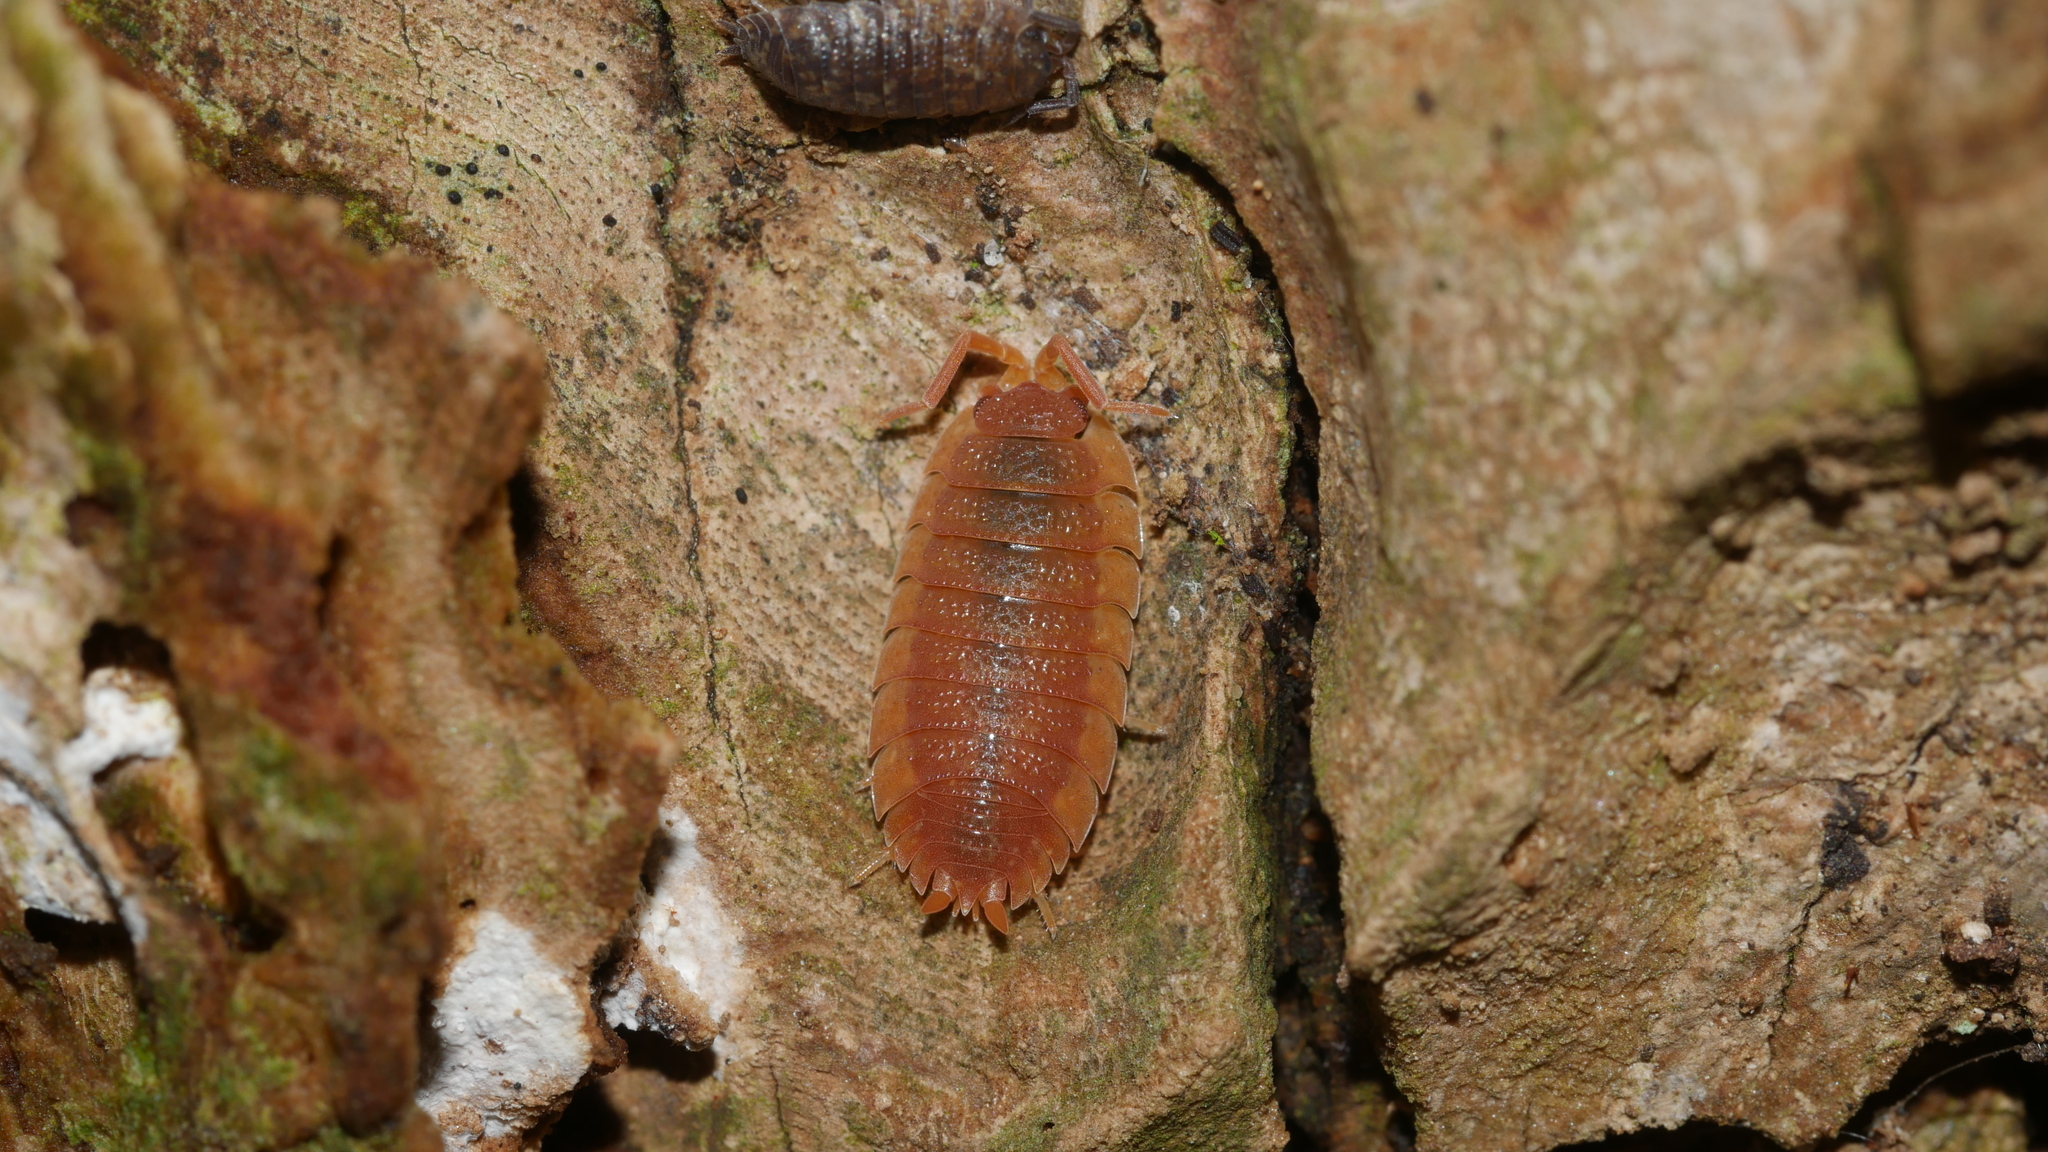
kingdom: Animalia
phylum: Arthropoda
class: Malacostraca
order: Isopoda
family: Porcellionidae
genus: Porcellio
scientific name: Porcellio scaber
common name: Common rough woodlouse
